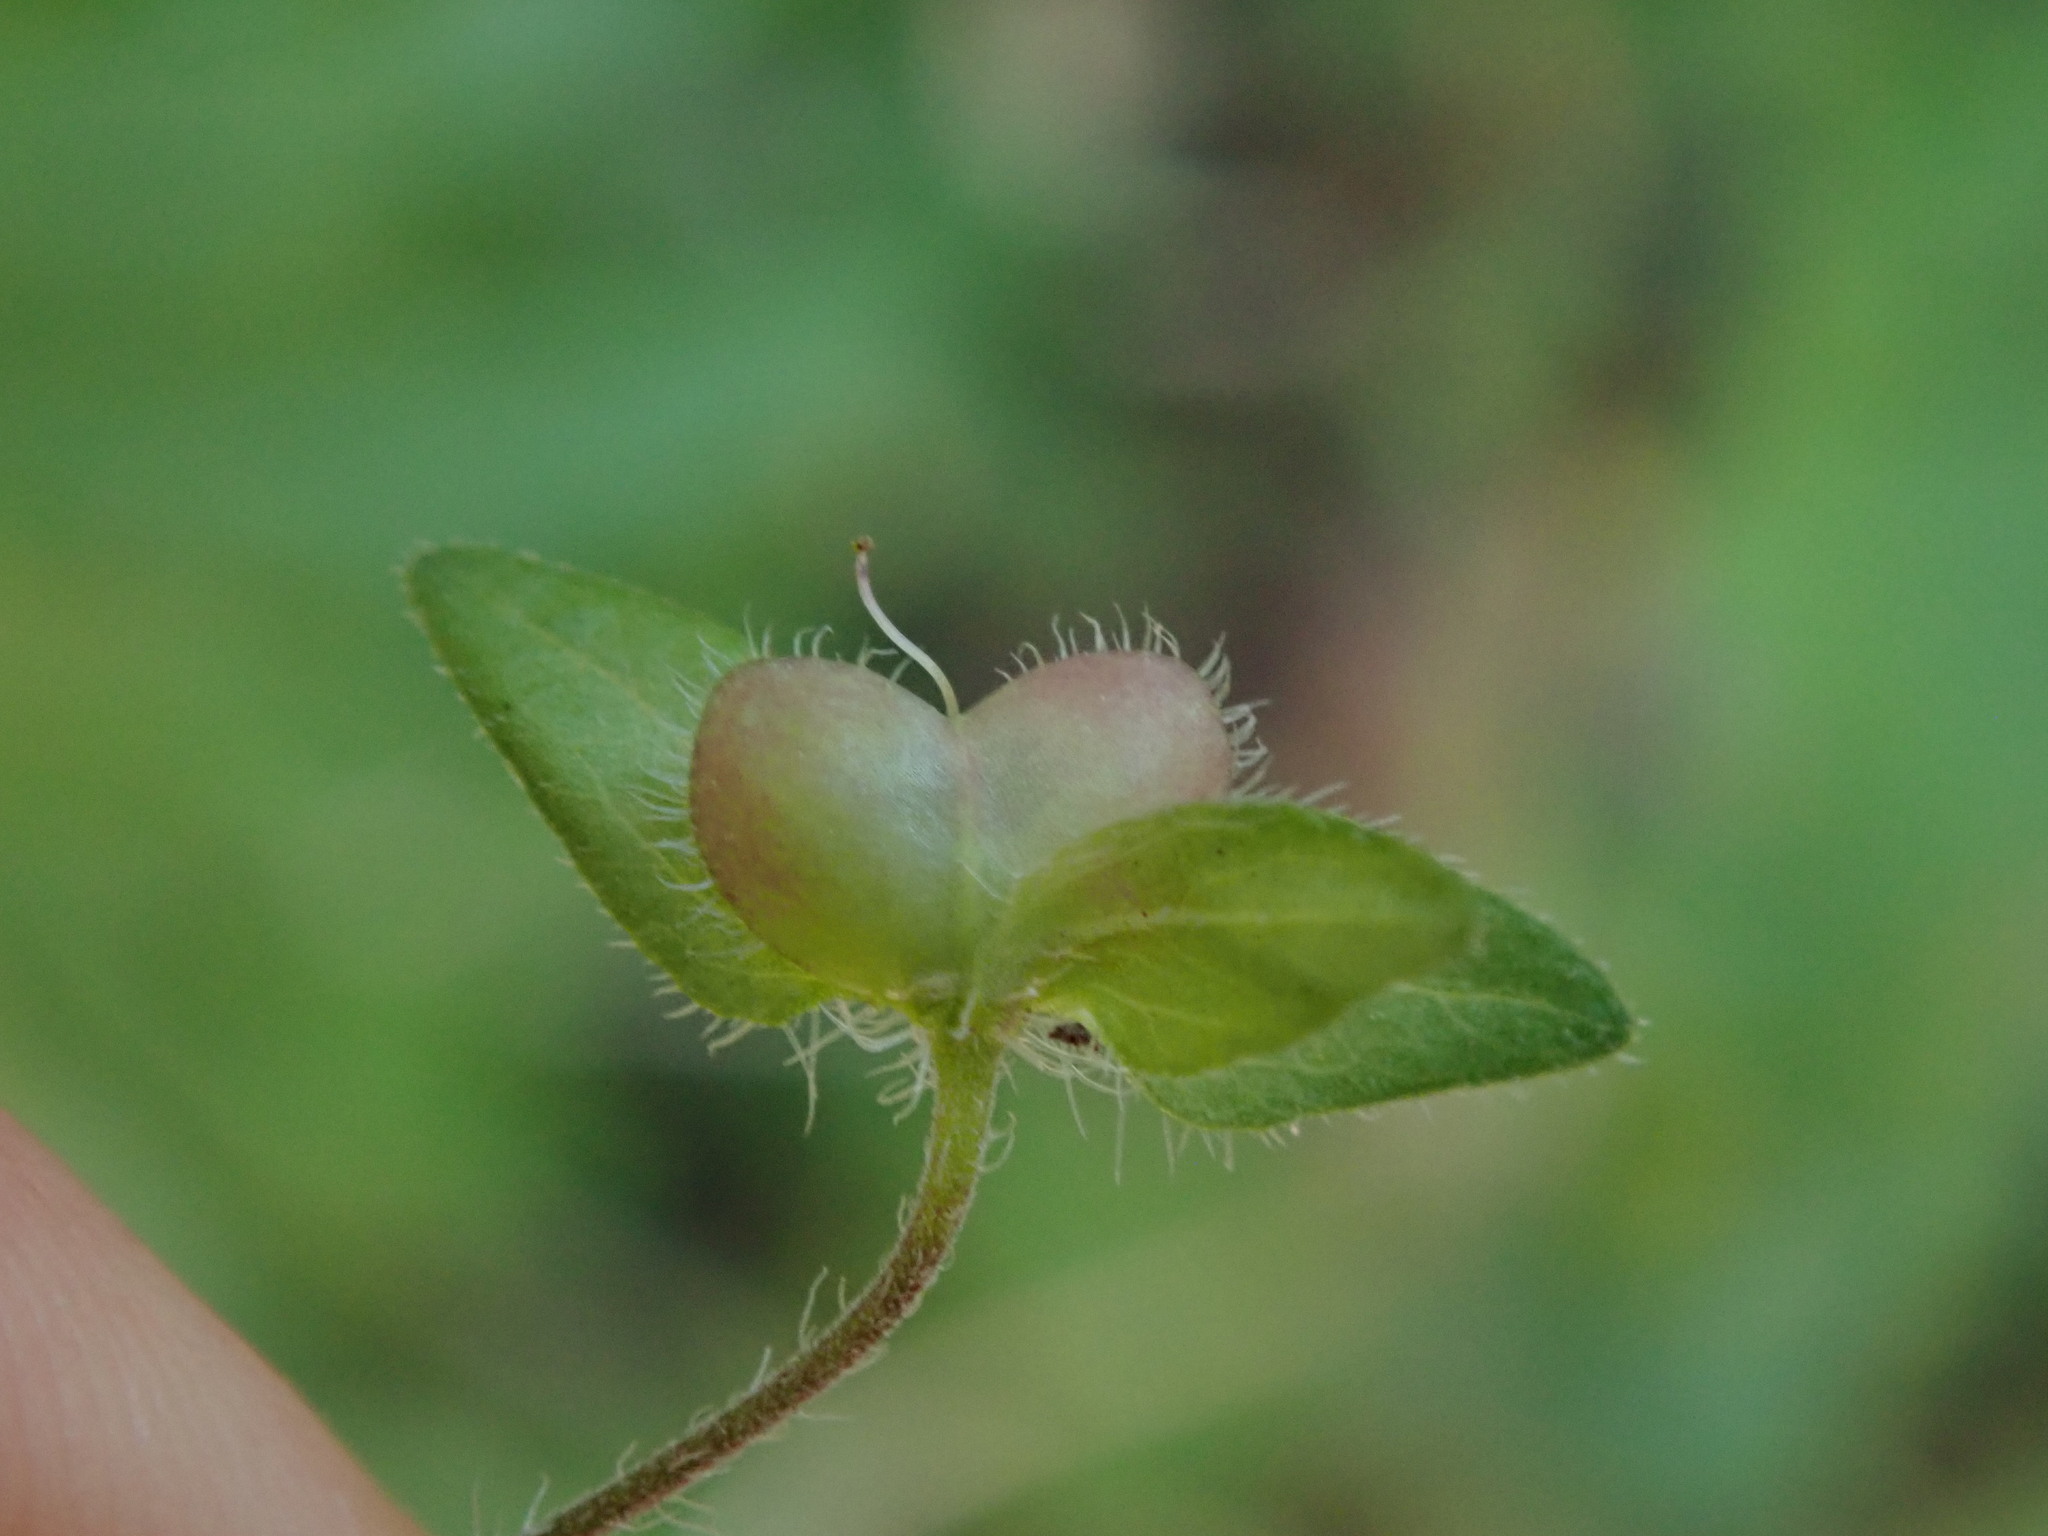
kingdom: Plantae
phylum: Tracheophyta
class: Magnoliopsida
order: Lamiales
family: Plantaginaceae
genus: Veronica
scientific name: Veronica persica
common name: Common field-speedwell
